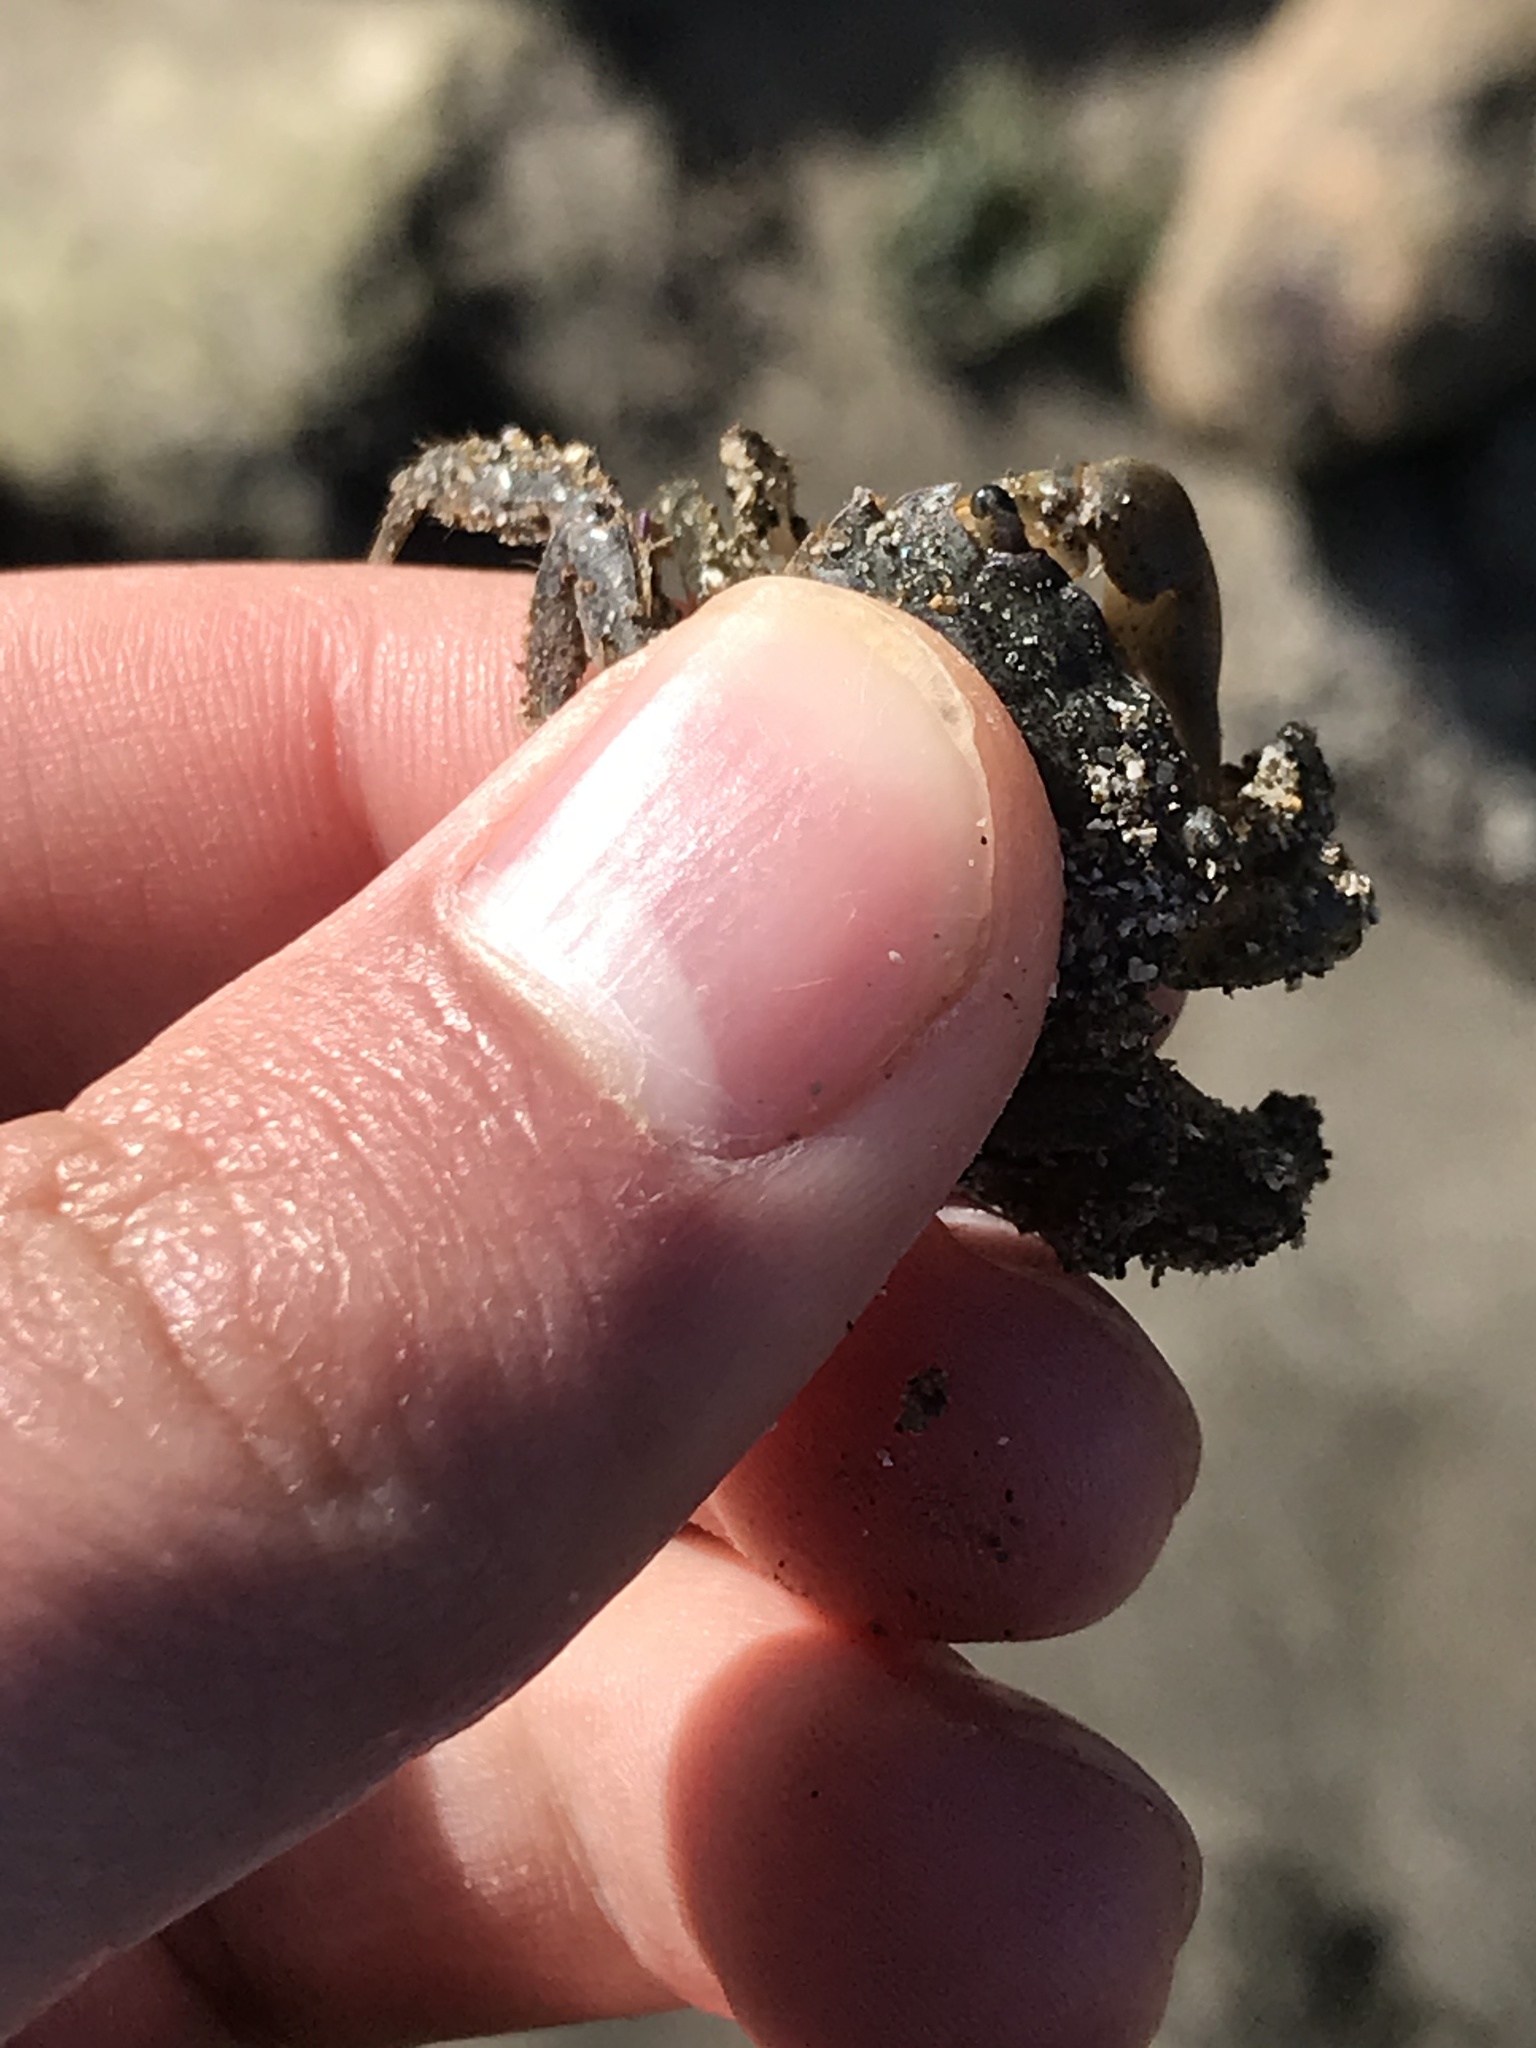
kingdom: Animalia
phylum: Arthropoda
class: Malacostraca
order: Decapoda
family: Varunidae
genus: Hemigrapsus
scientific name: Hemigrapsus oregonensis
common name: Yellow shore crab
